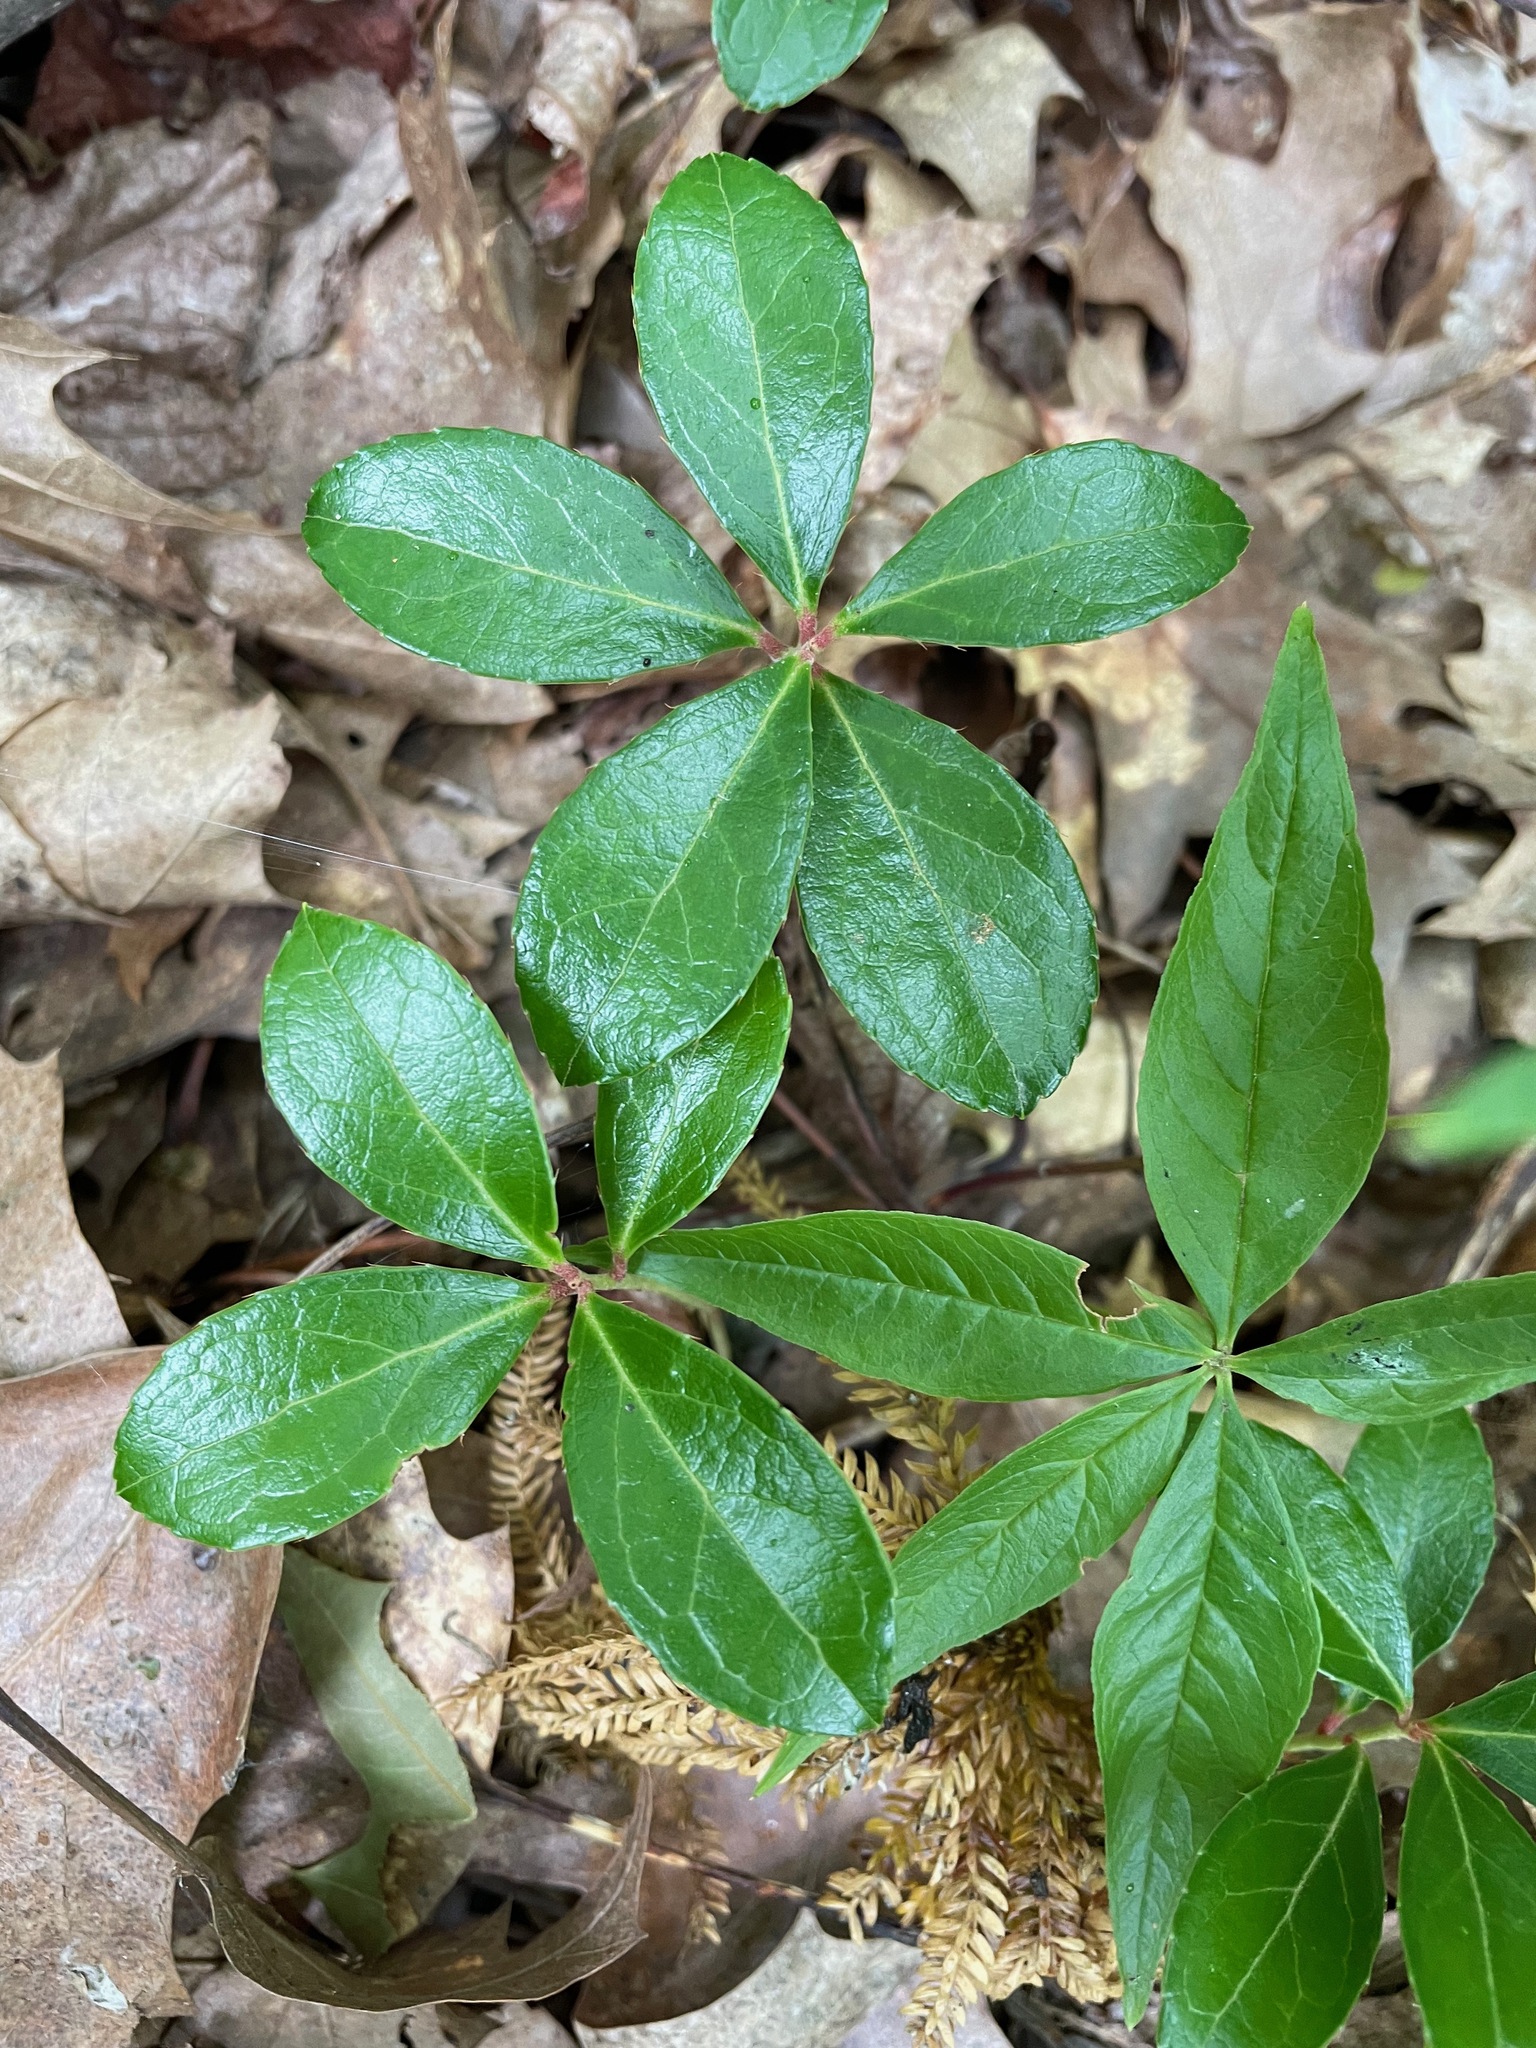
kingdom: Plantae
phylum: Tracheophyta
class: Magnoliopsida
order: Ericales
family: Ericaceae
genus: Gaultheria
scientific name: Gaultheria procumbens
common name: Checkerberry
